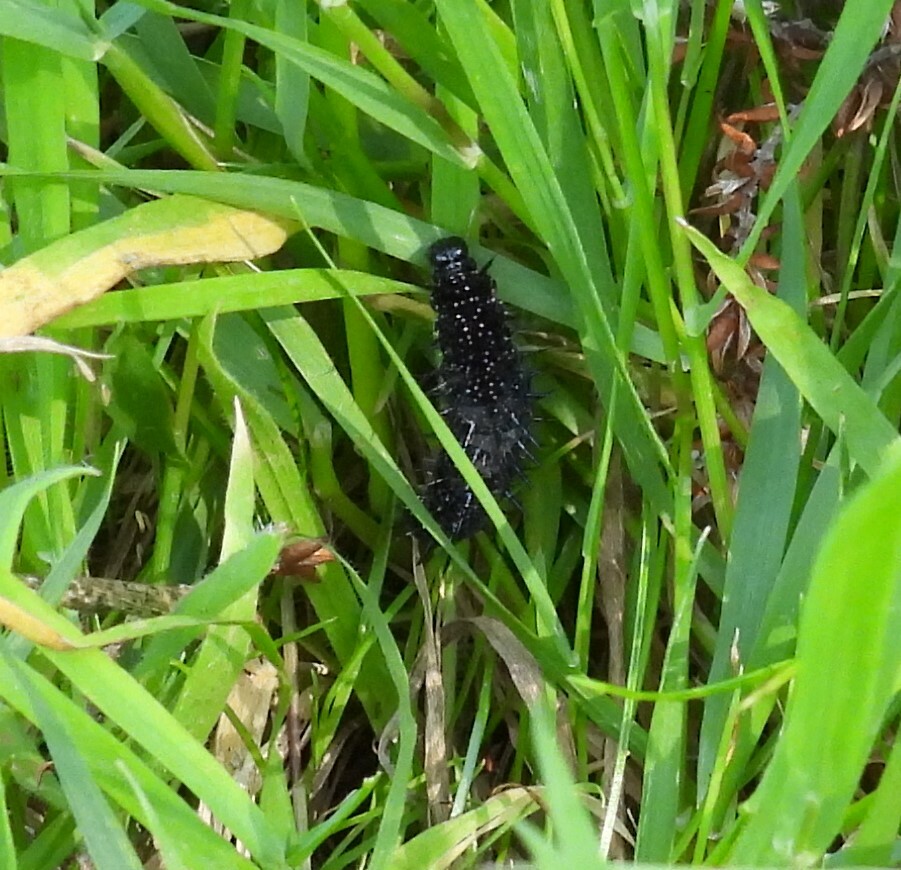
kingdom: Animalia
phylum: Arthropoda
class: Insecta
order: Lepidoptera
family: Nymphalidae
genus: Aglais
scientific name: Aglais io
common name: Peacock
